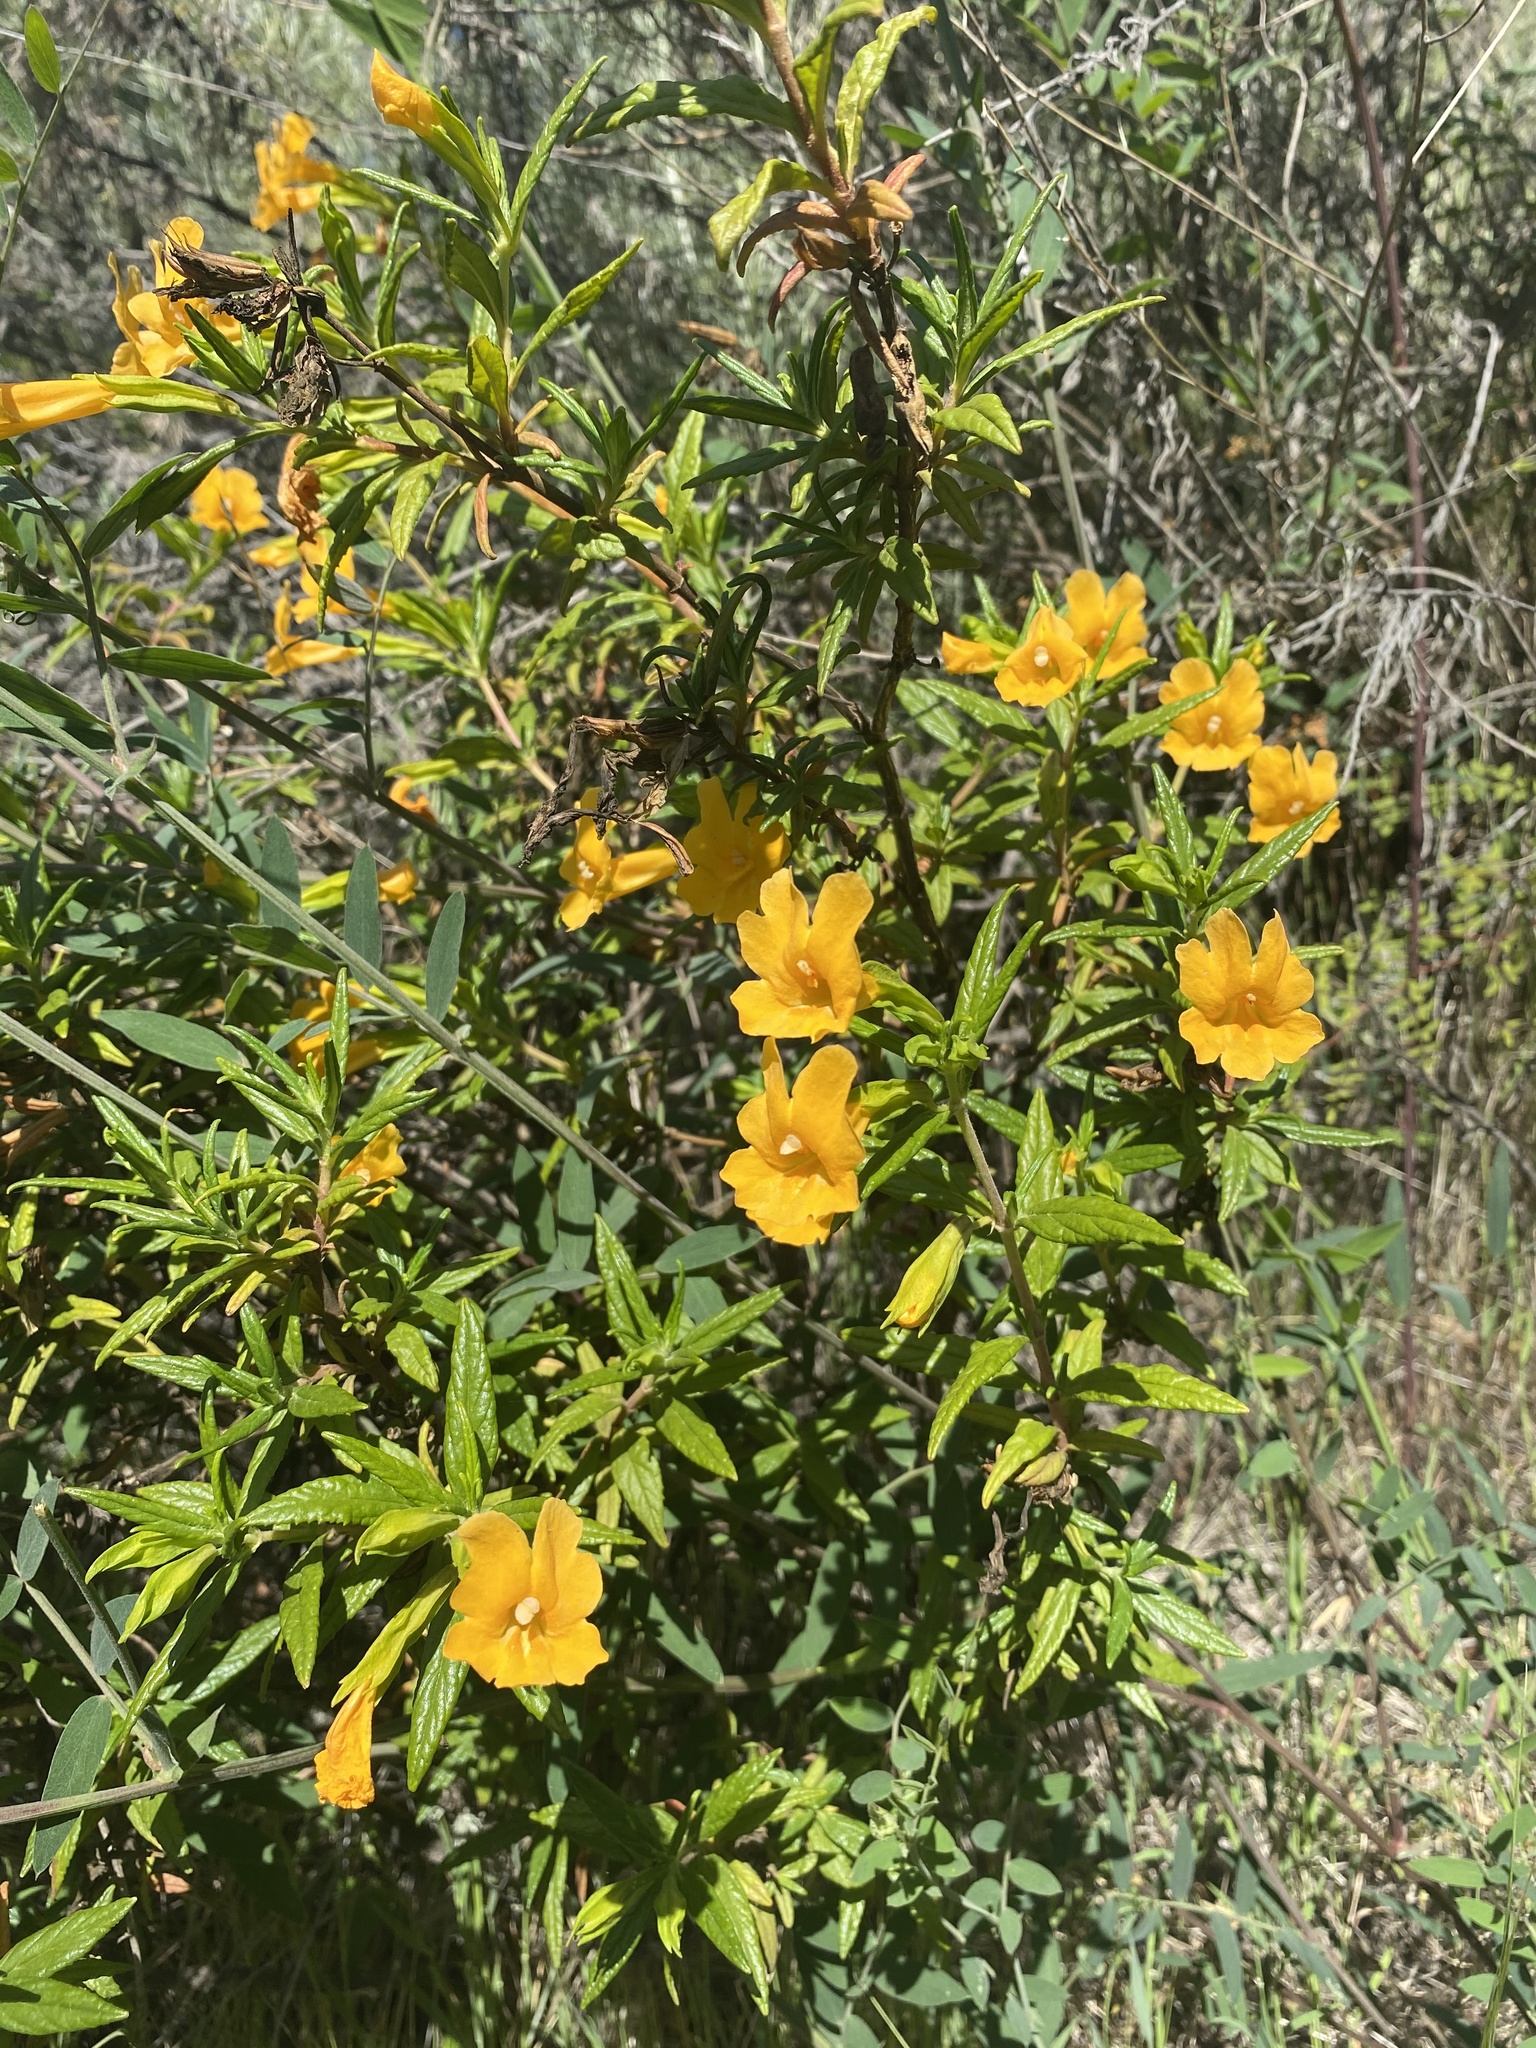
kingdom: Plantae
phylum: Tracheophyta
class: Magnoliopsida
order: Lamiales
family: Phrymaceae
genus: Diplacus
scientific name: Diplacus aurantiacus
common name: Bush monkey-flower
